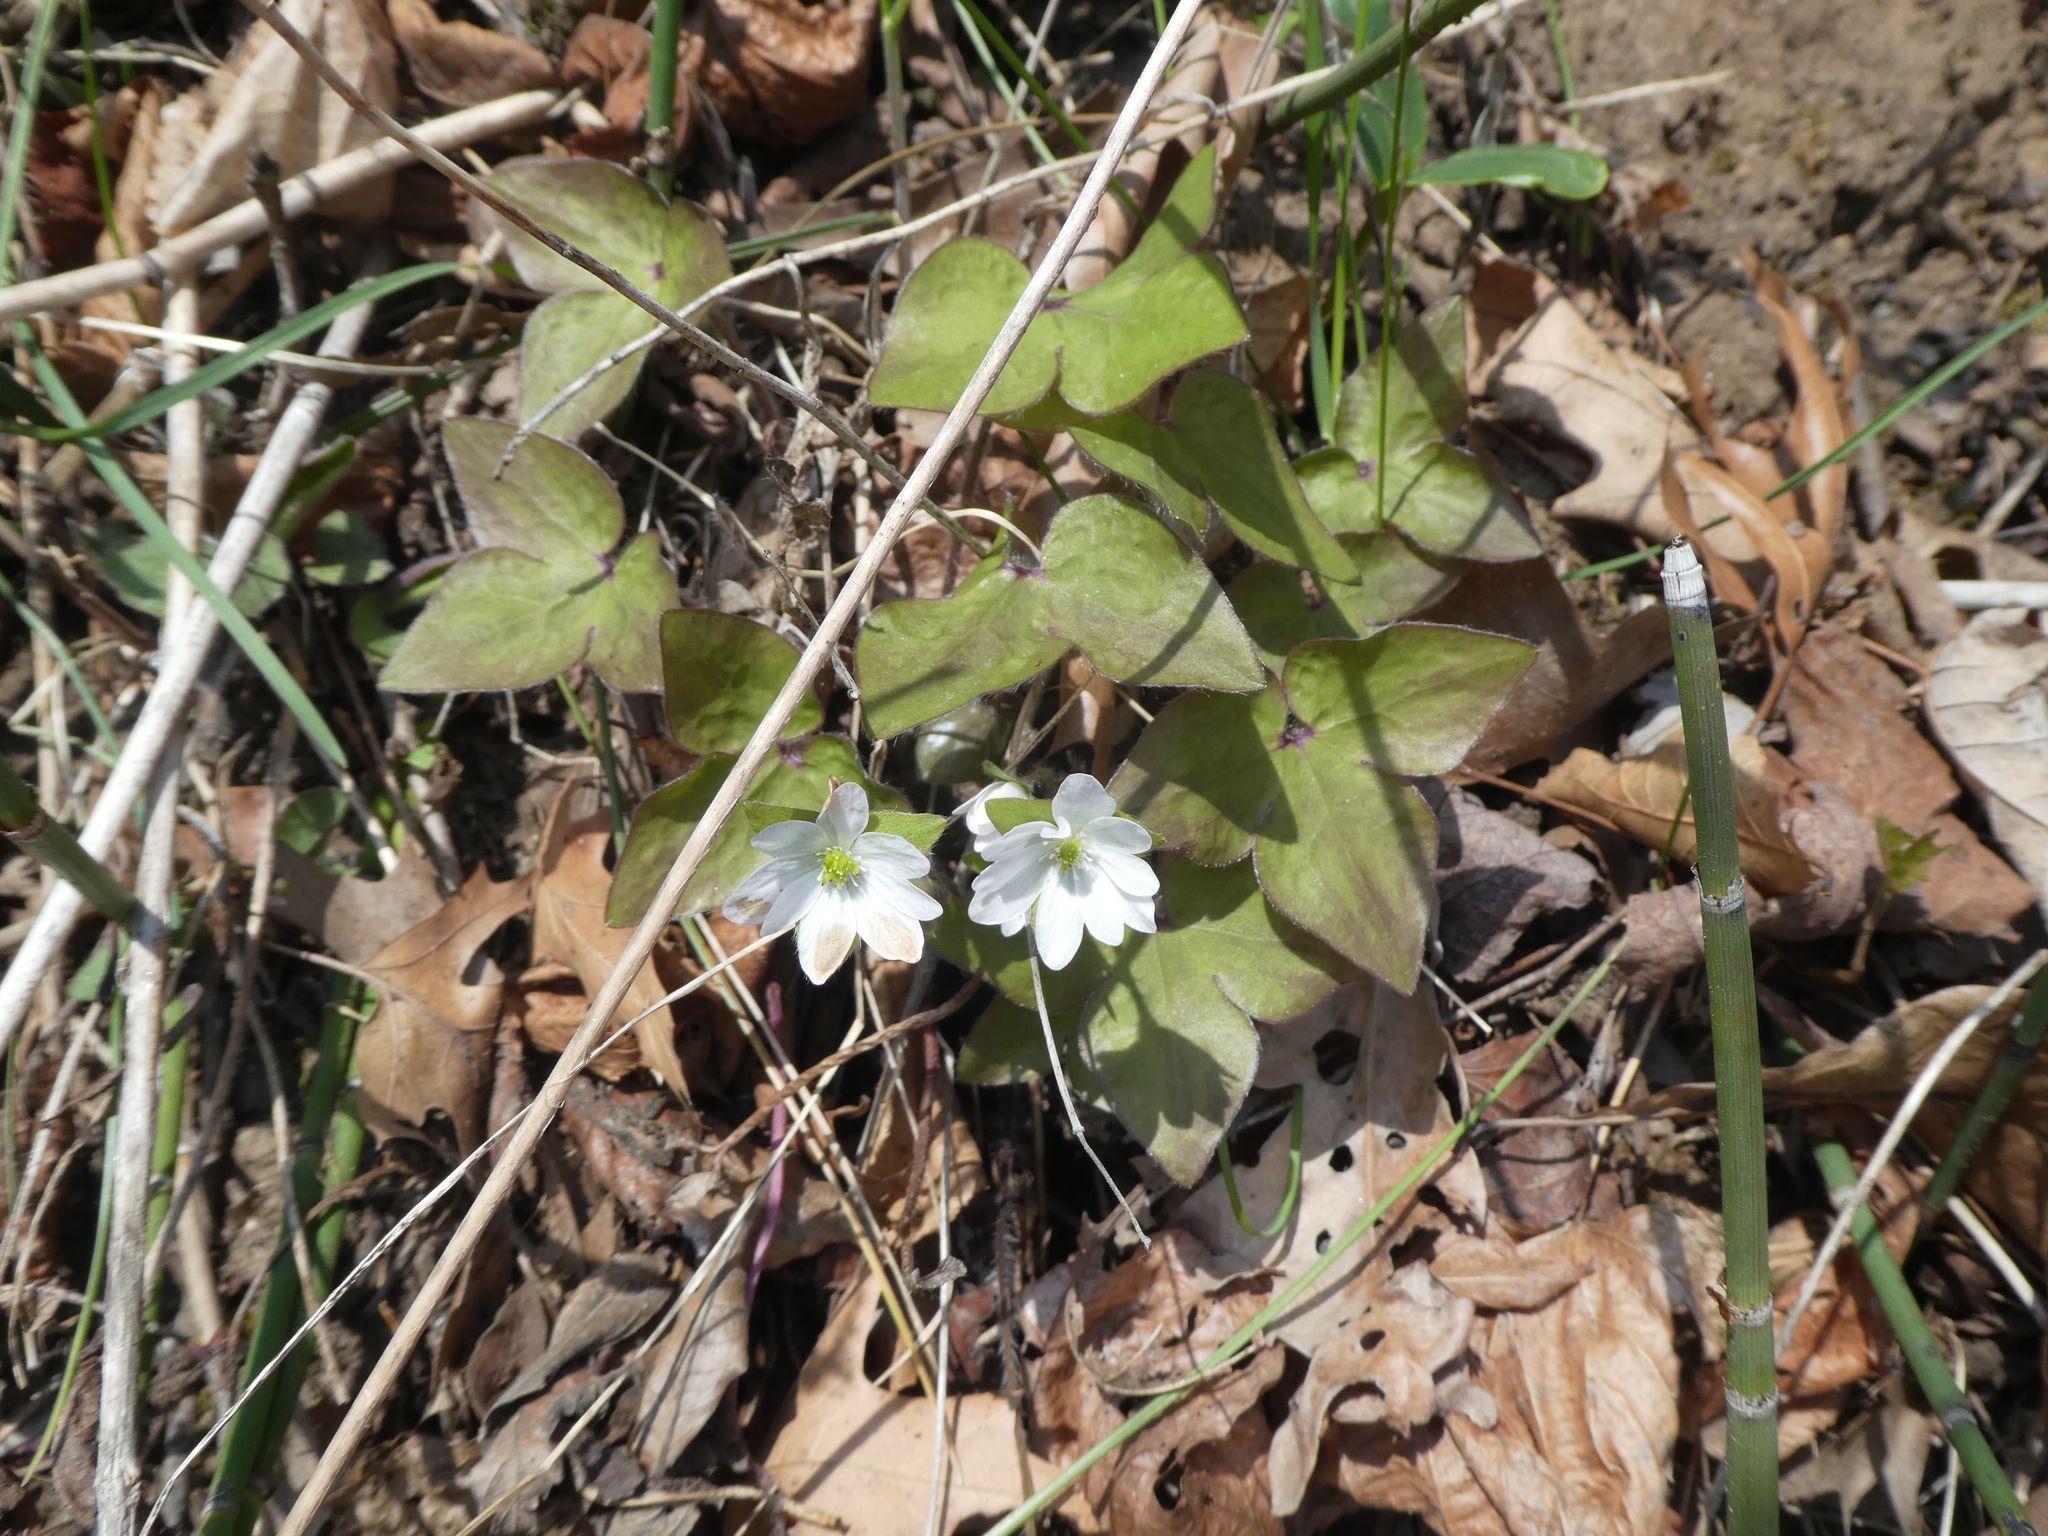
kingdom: Plantae
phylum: Tracheophyta
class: Magnoliopsida
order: Ranunculales
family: Ranunculaceae
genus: Hepatica
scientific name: Hepatica acutiloba
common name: Sharp-lobed hepatica
